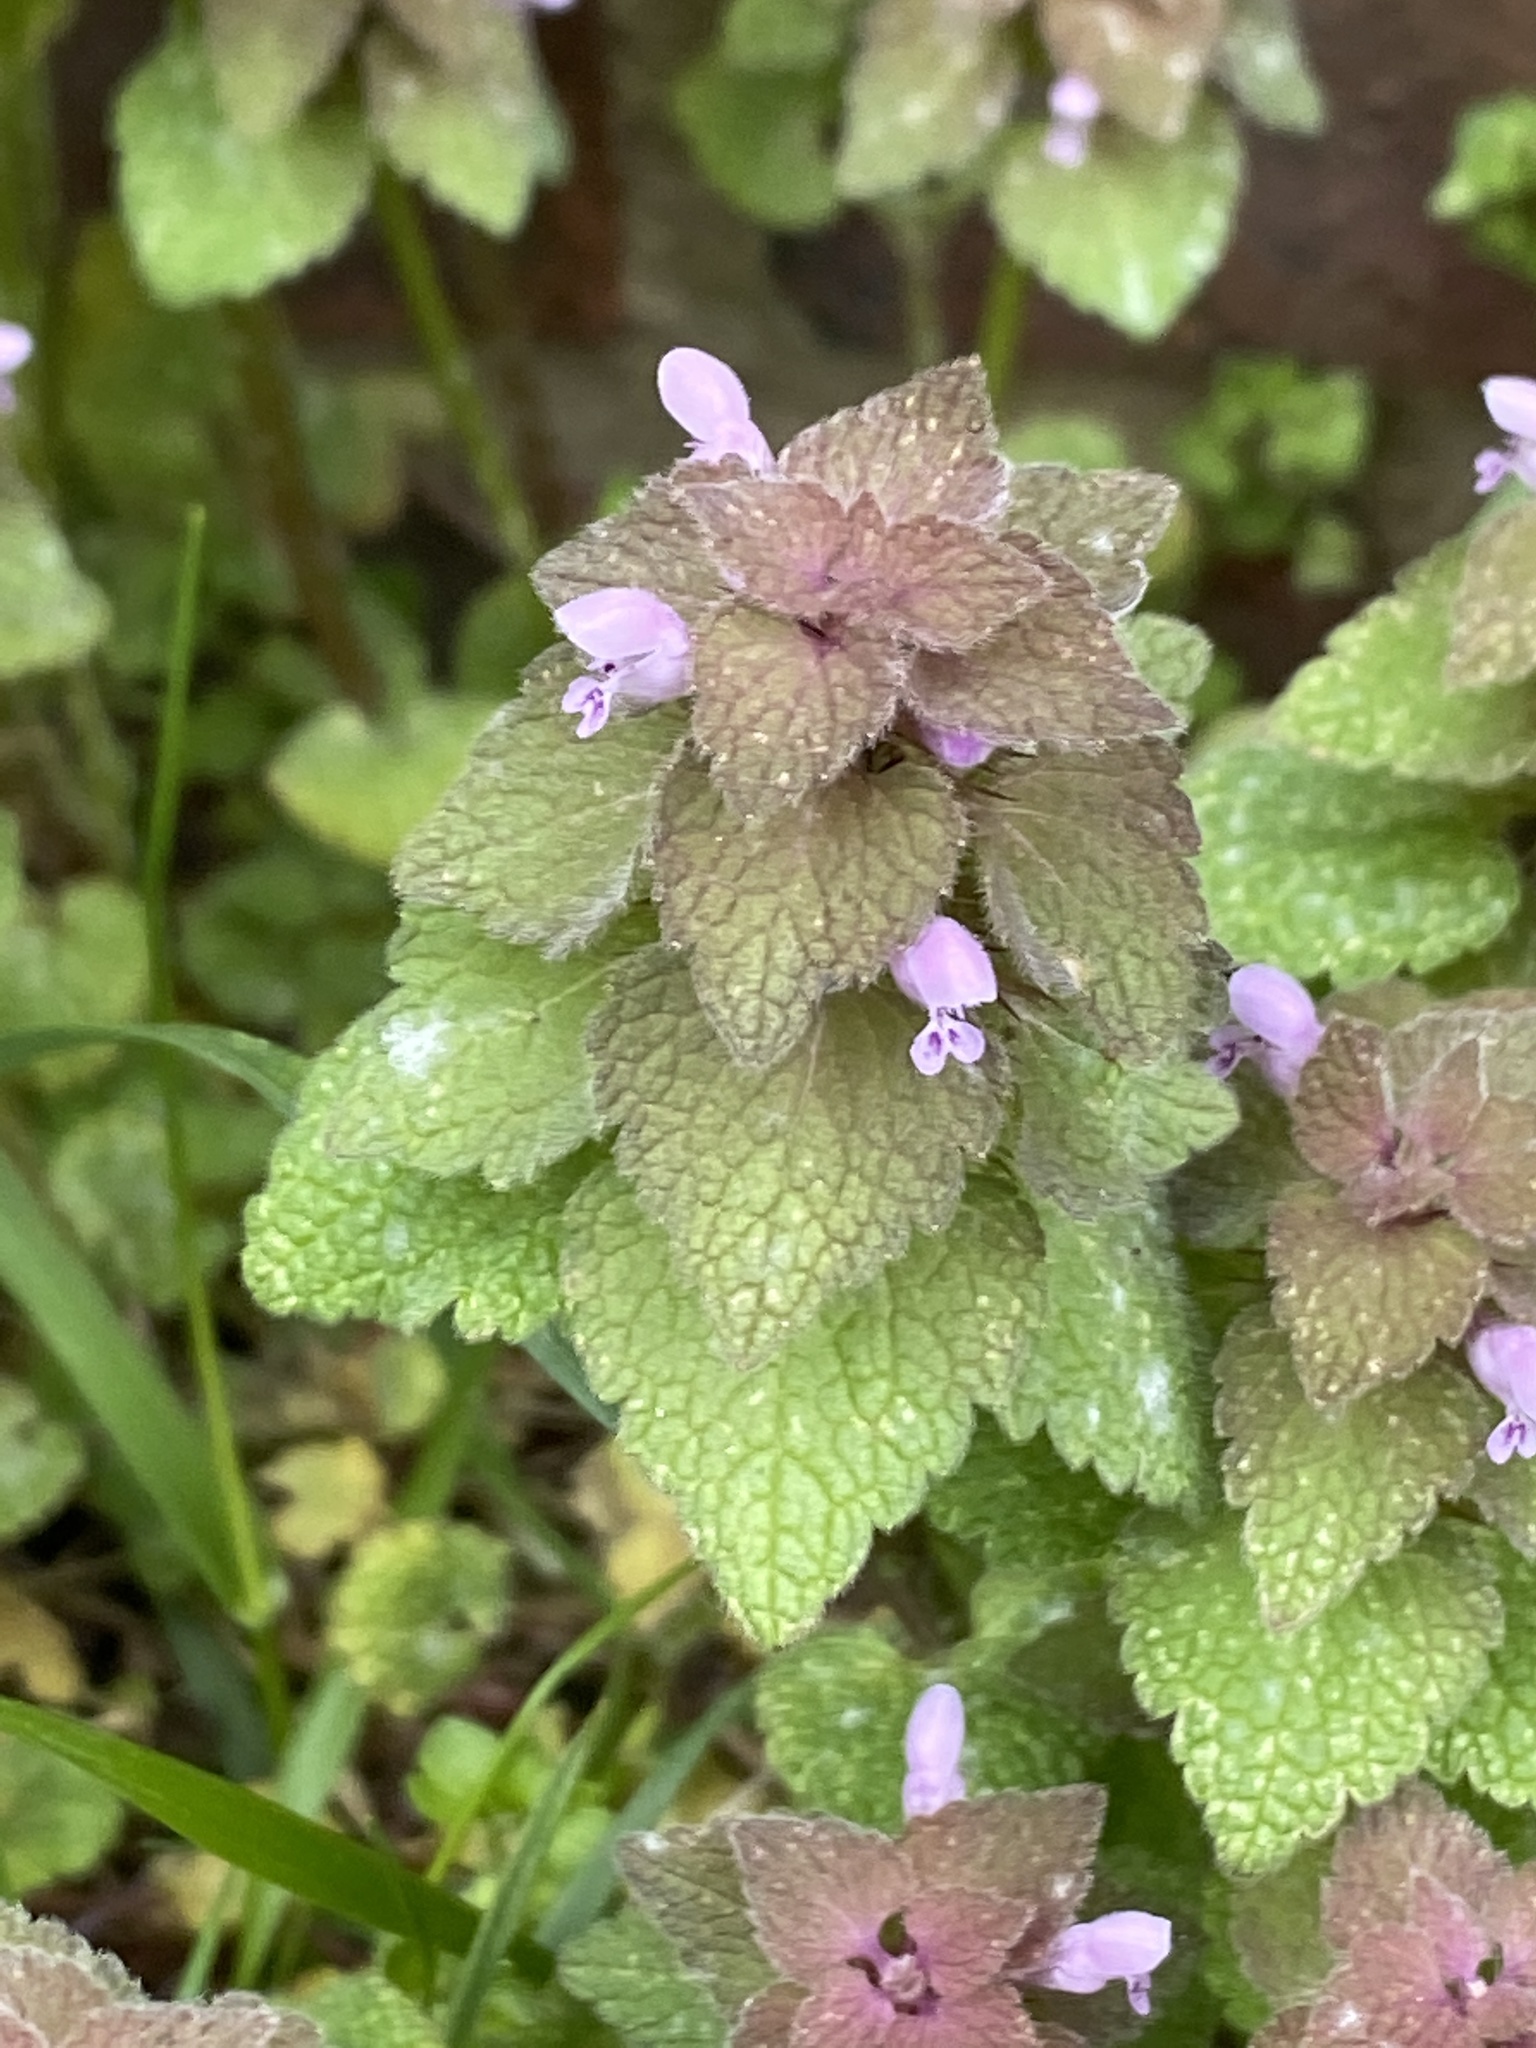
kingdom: Plantae
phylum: Tracheophyta
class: Magnoliopsida
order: Lamiales
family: Lamiaceae
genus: Lamium
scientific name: Lamium purpureum
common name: Red dead-nettle
